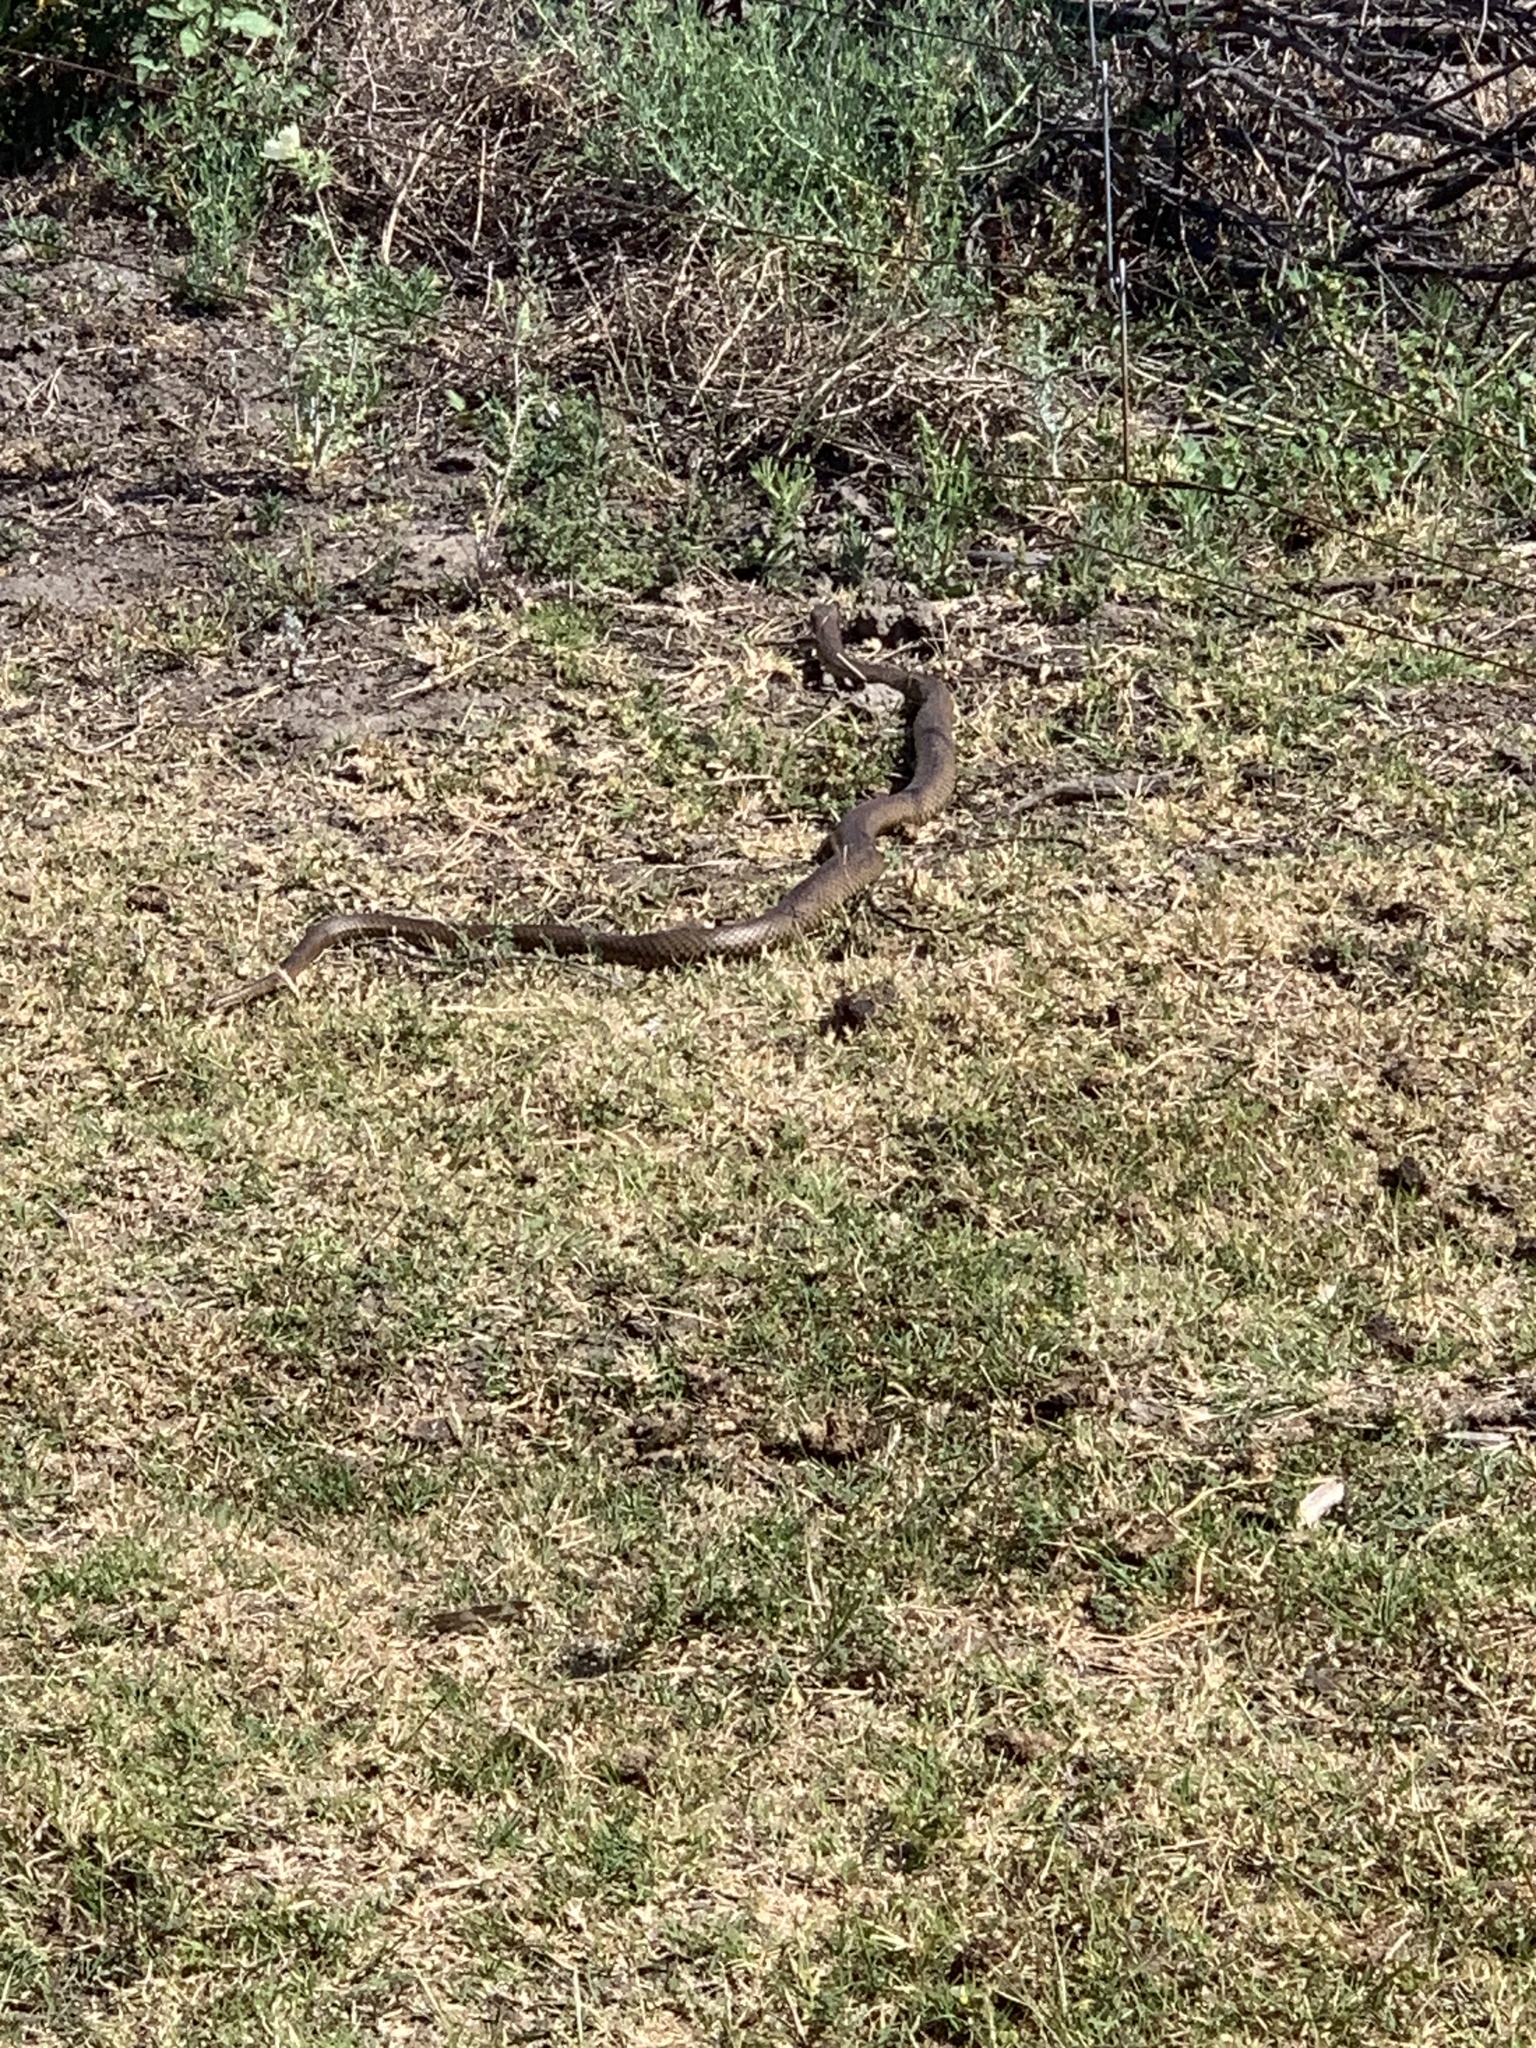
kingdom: Animalia
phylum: Chordata
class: Squamata
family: Elapidae
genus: Pseudonaja
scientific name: Pseudonaja textilis
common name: Eastern brown snake
